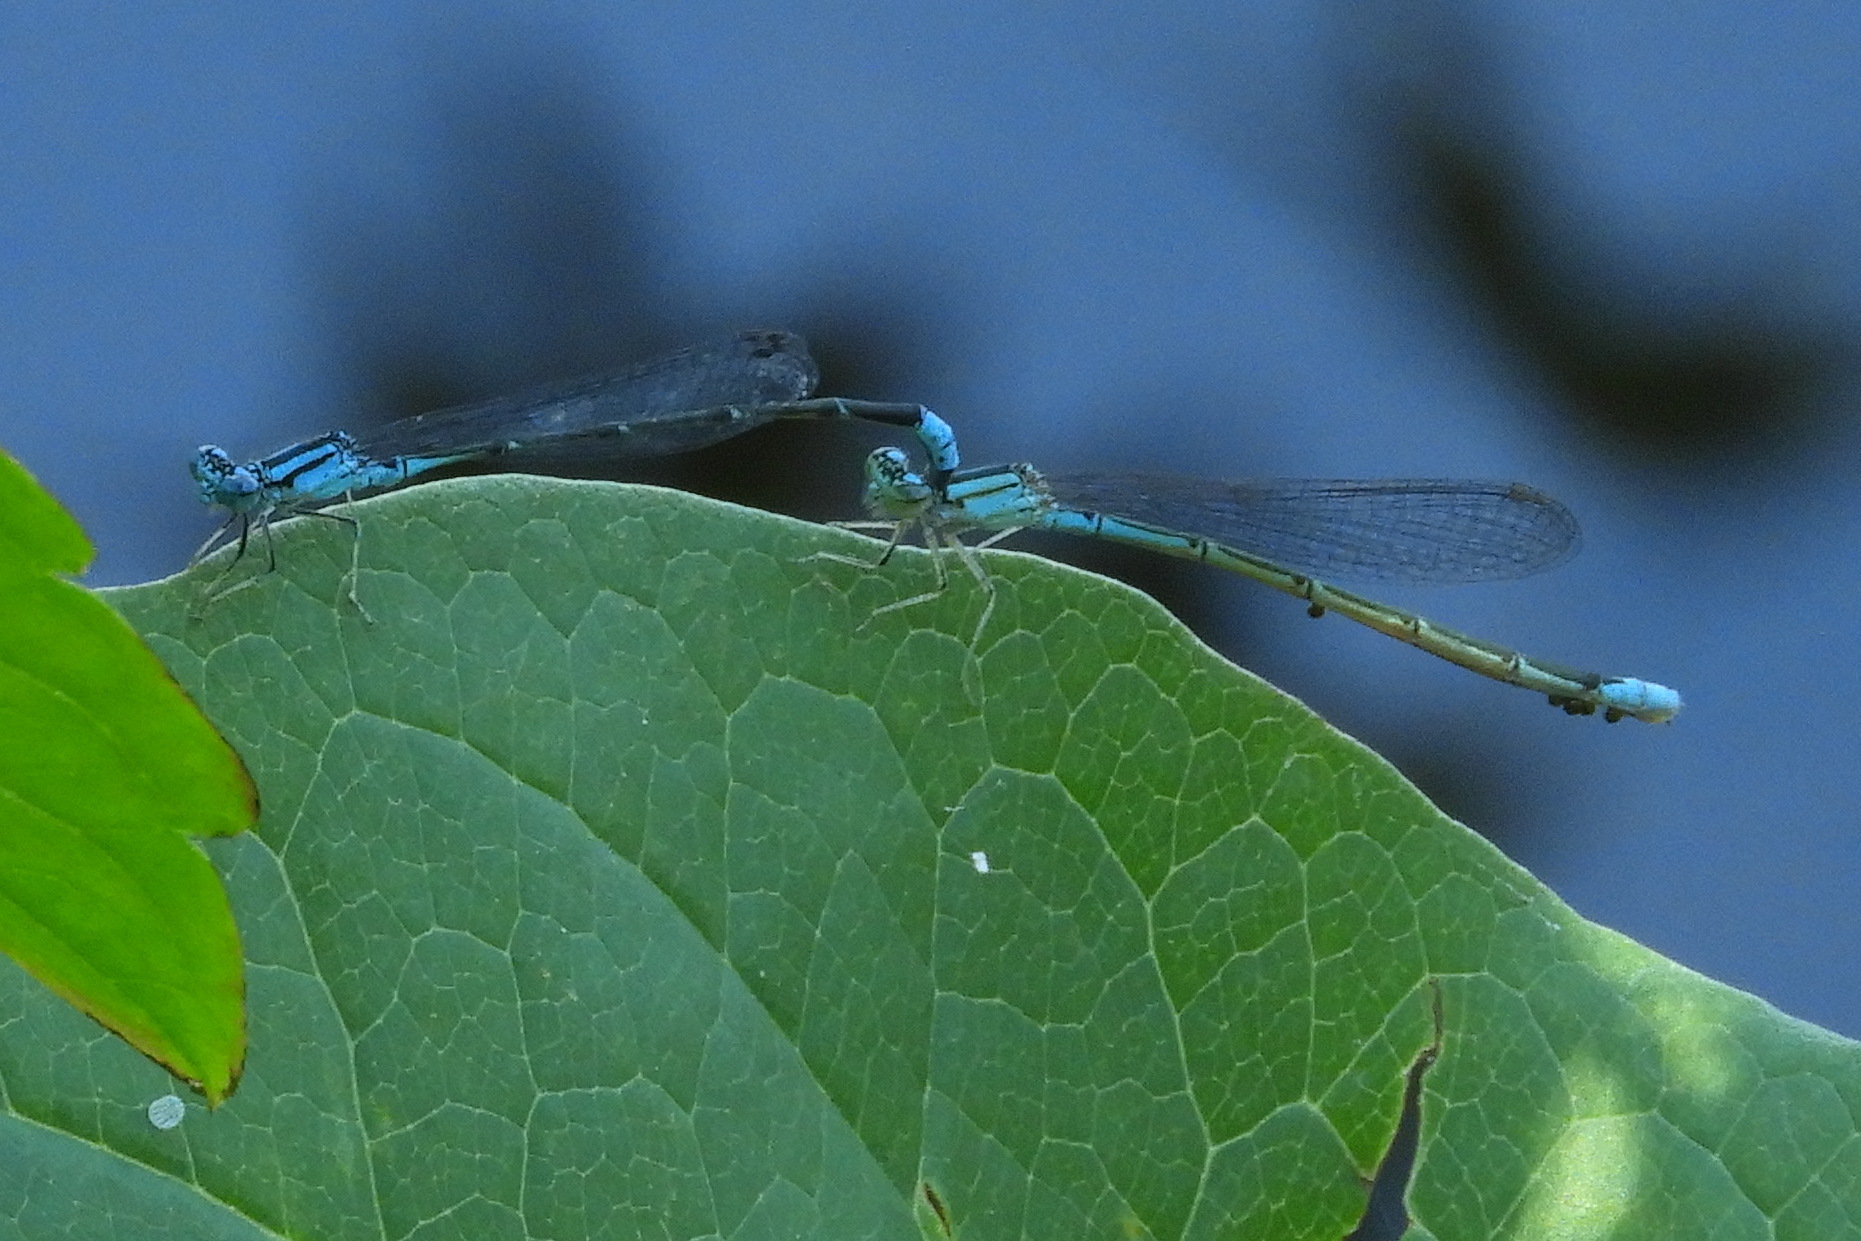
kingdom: Animalia
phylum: Arthropoda
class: Insecta
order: Odonata
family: Coenagrionidae
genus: Enallagma
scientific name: Enallagma traviatum
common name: Slender bluet
